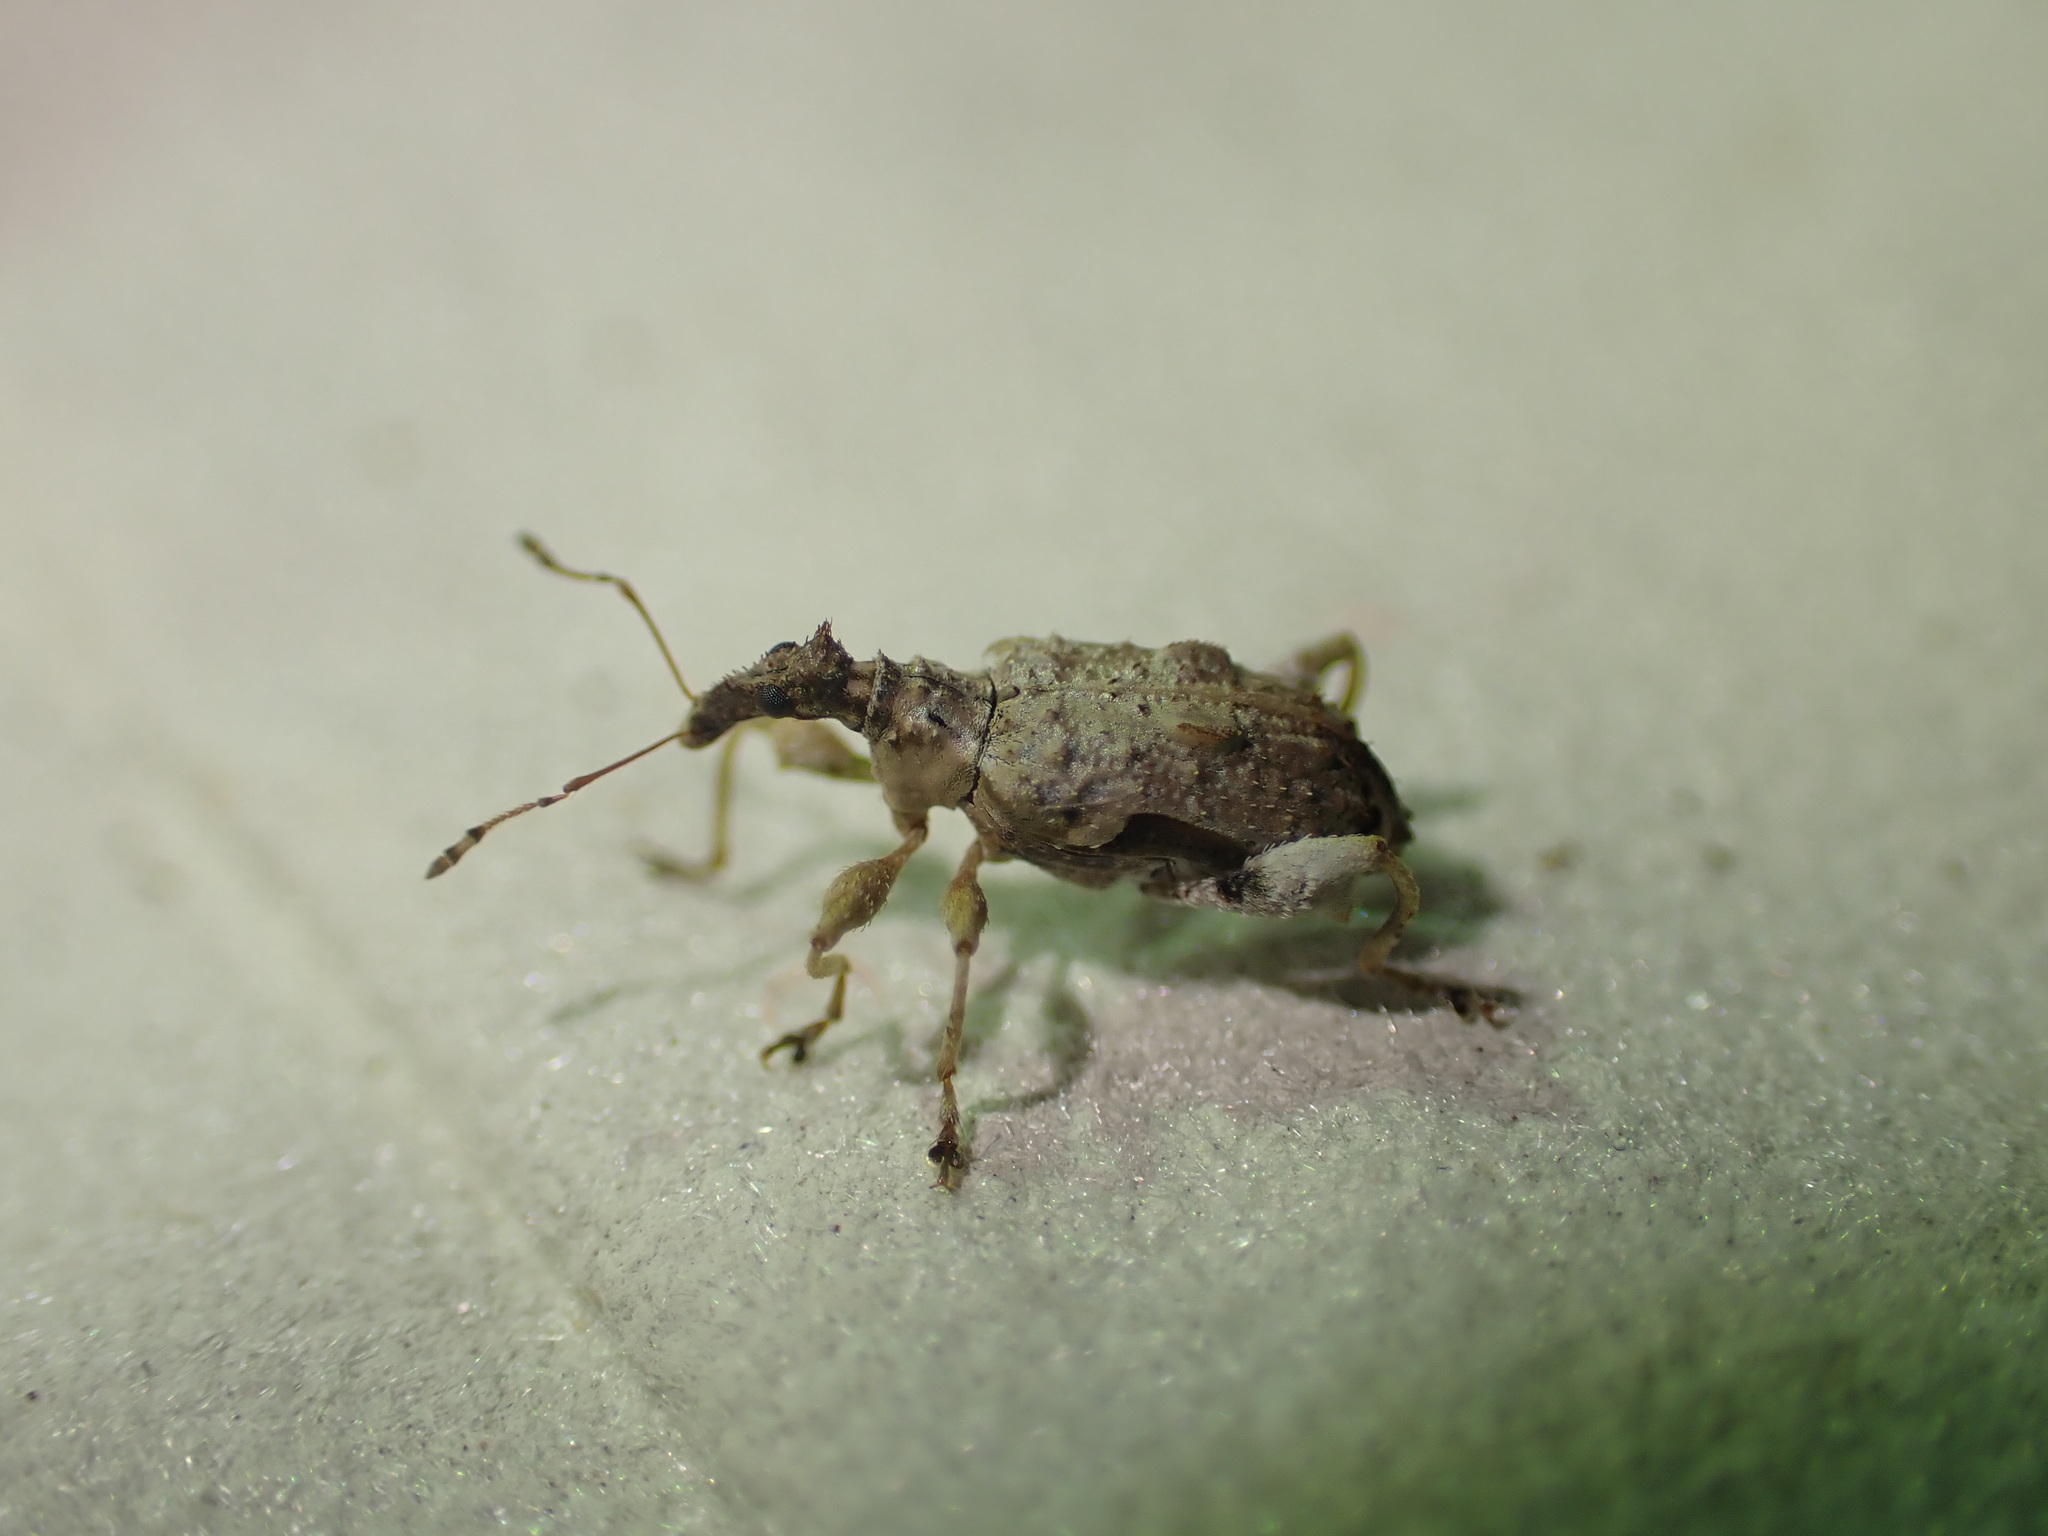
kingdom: Animalia
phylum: Arthropoda
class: Insecta
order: Coleoptera
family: Curculionidae
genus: Stephanorhynchus
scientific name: Stephanorhynchus curvipes
